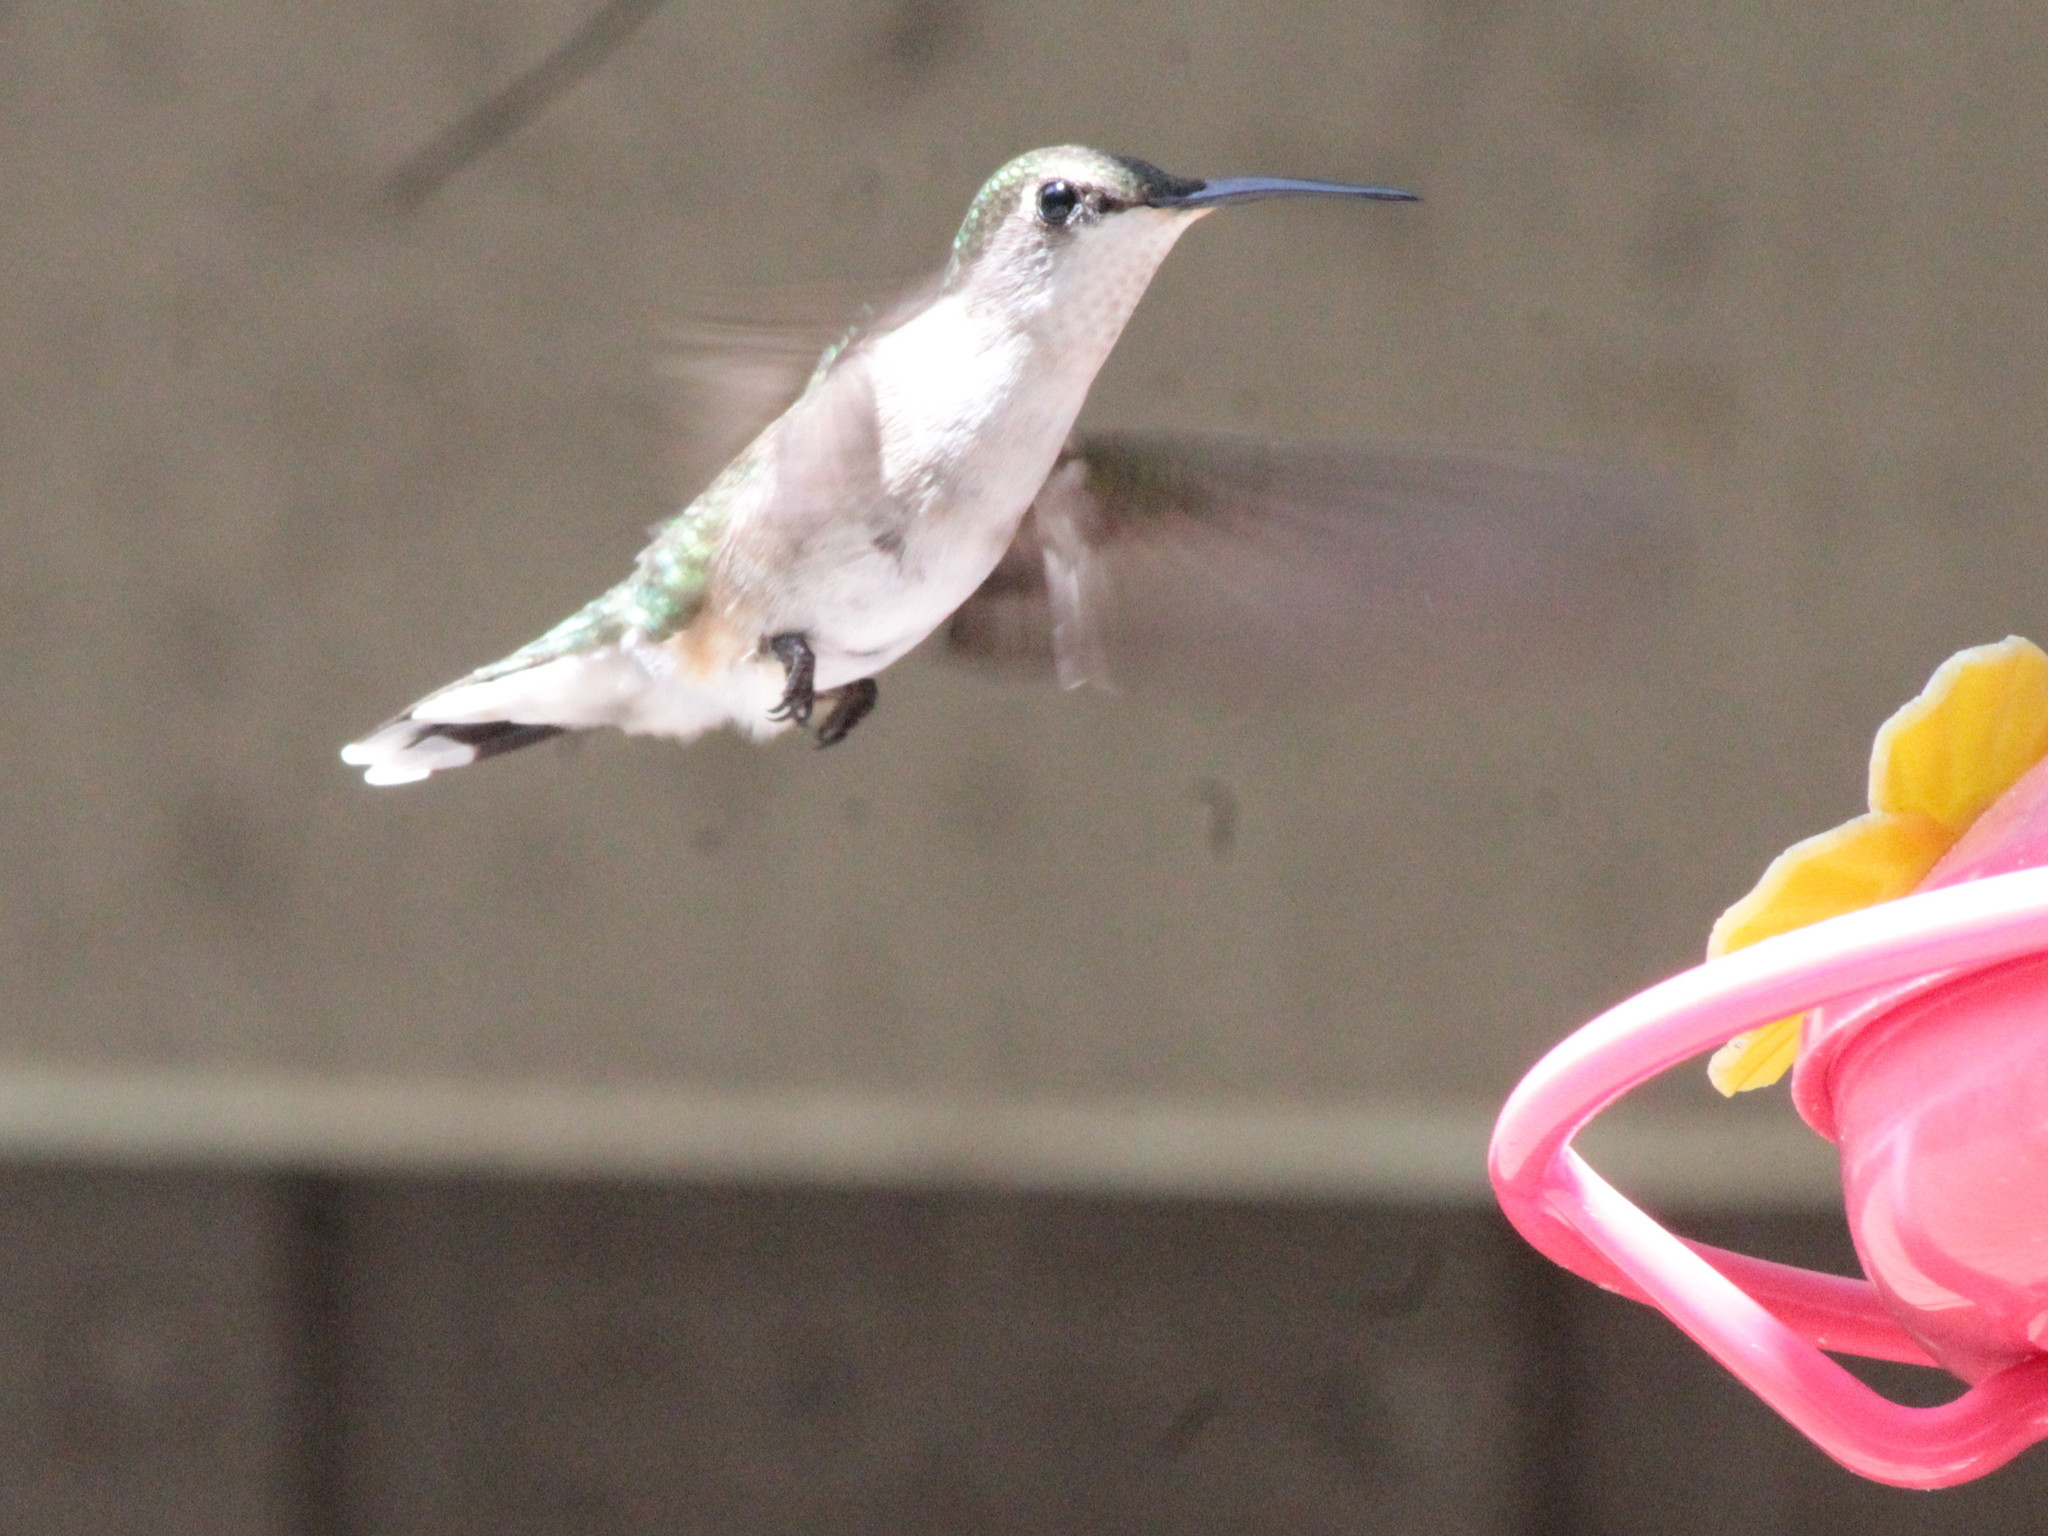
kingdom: Animalia
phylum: Chordata
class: Aves
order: Apodiformes
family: Trochilidae
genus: Archilochus
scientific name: Archilochus colubris
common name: Ruby-throated hummingbird
